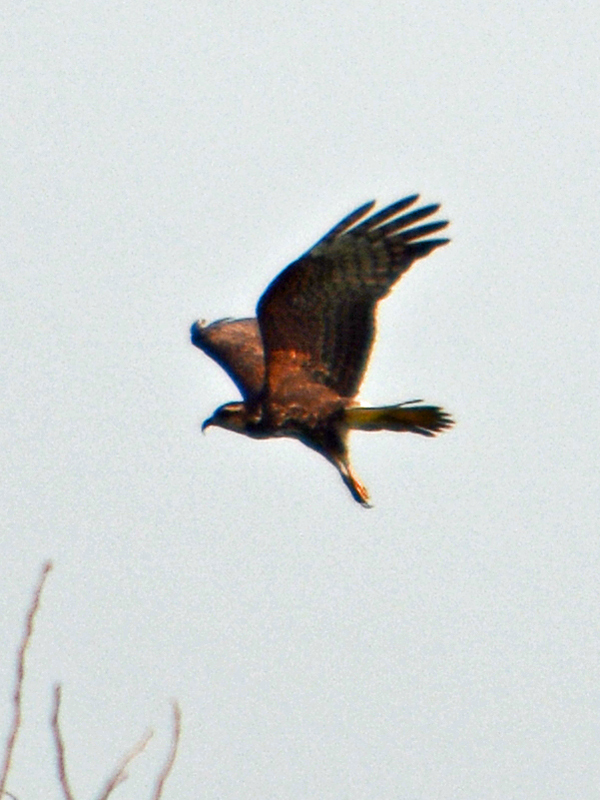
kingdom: Animalia
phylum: Chordata
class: Aves
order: Accipitriformes
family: Accipitridae
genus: Rostrhamus
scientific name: Rostrhamus sociabilis
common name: Snail kite
